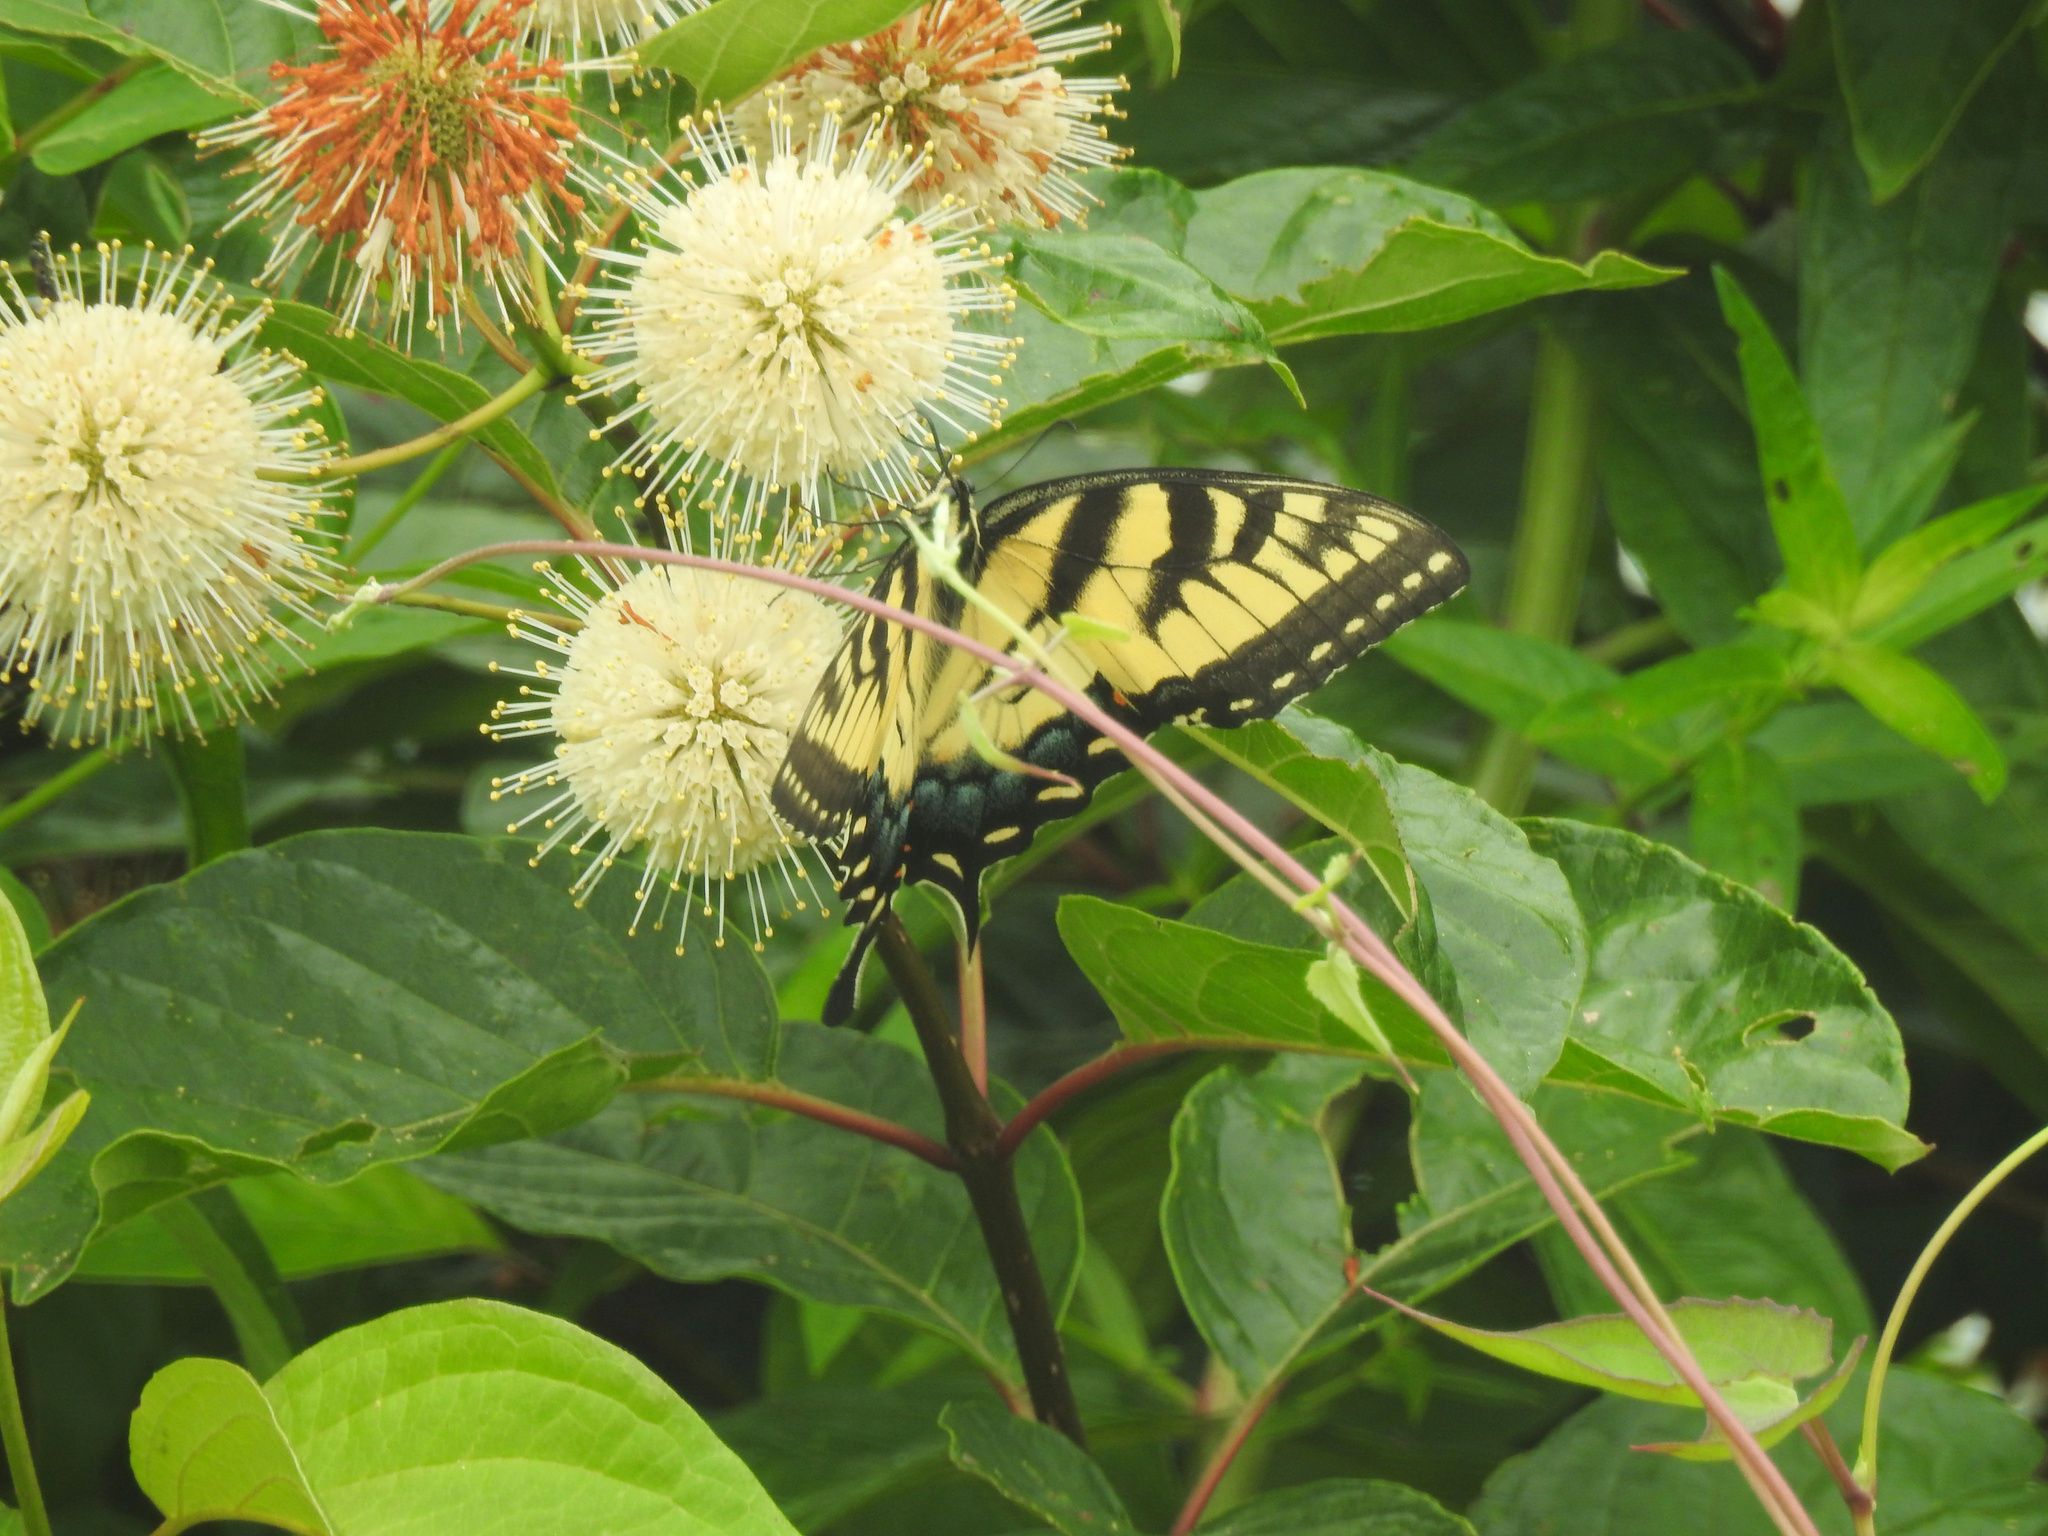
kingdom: Animalia
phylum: Arthropoda
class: Insecta
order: Lepidoptera
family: Papilionidae
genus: Papilio
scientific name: Papilio glaucus
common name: Tiger swallowtail
